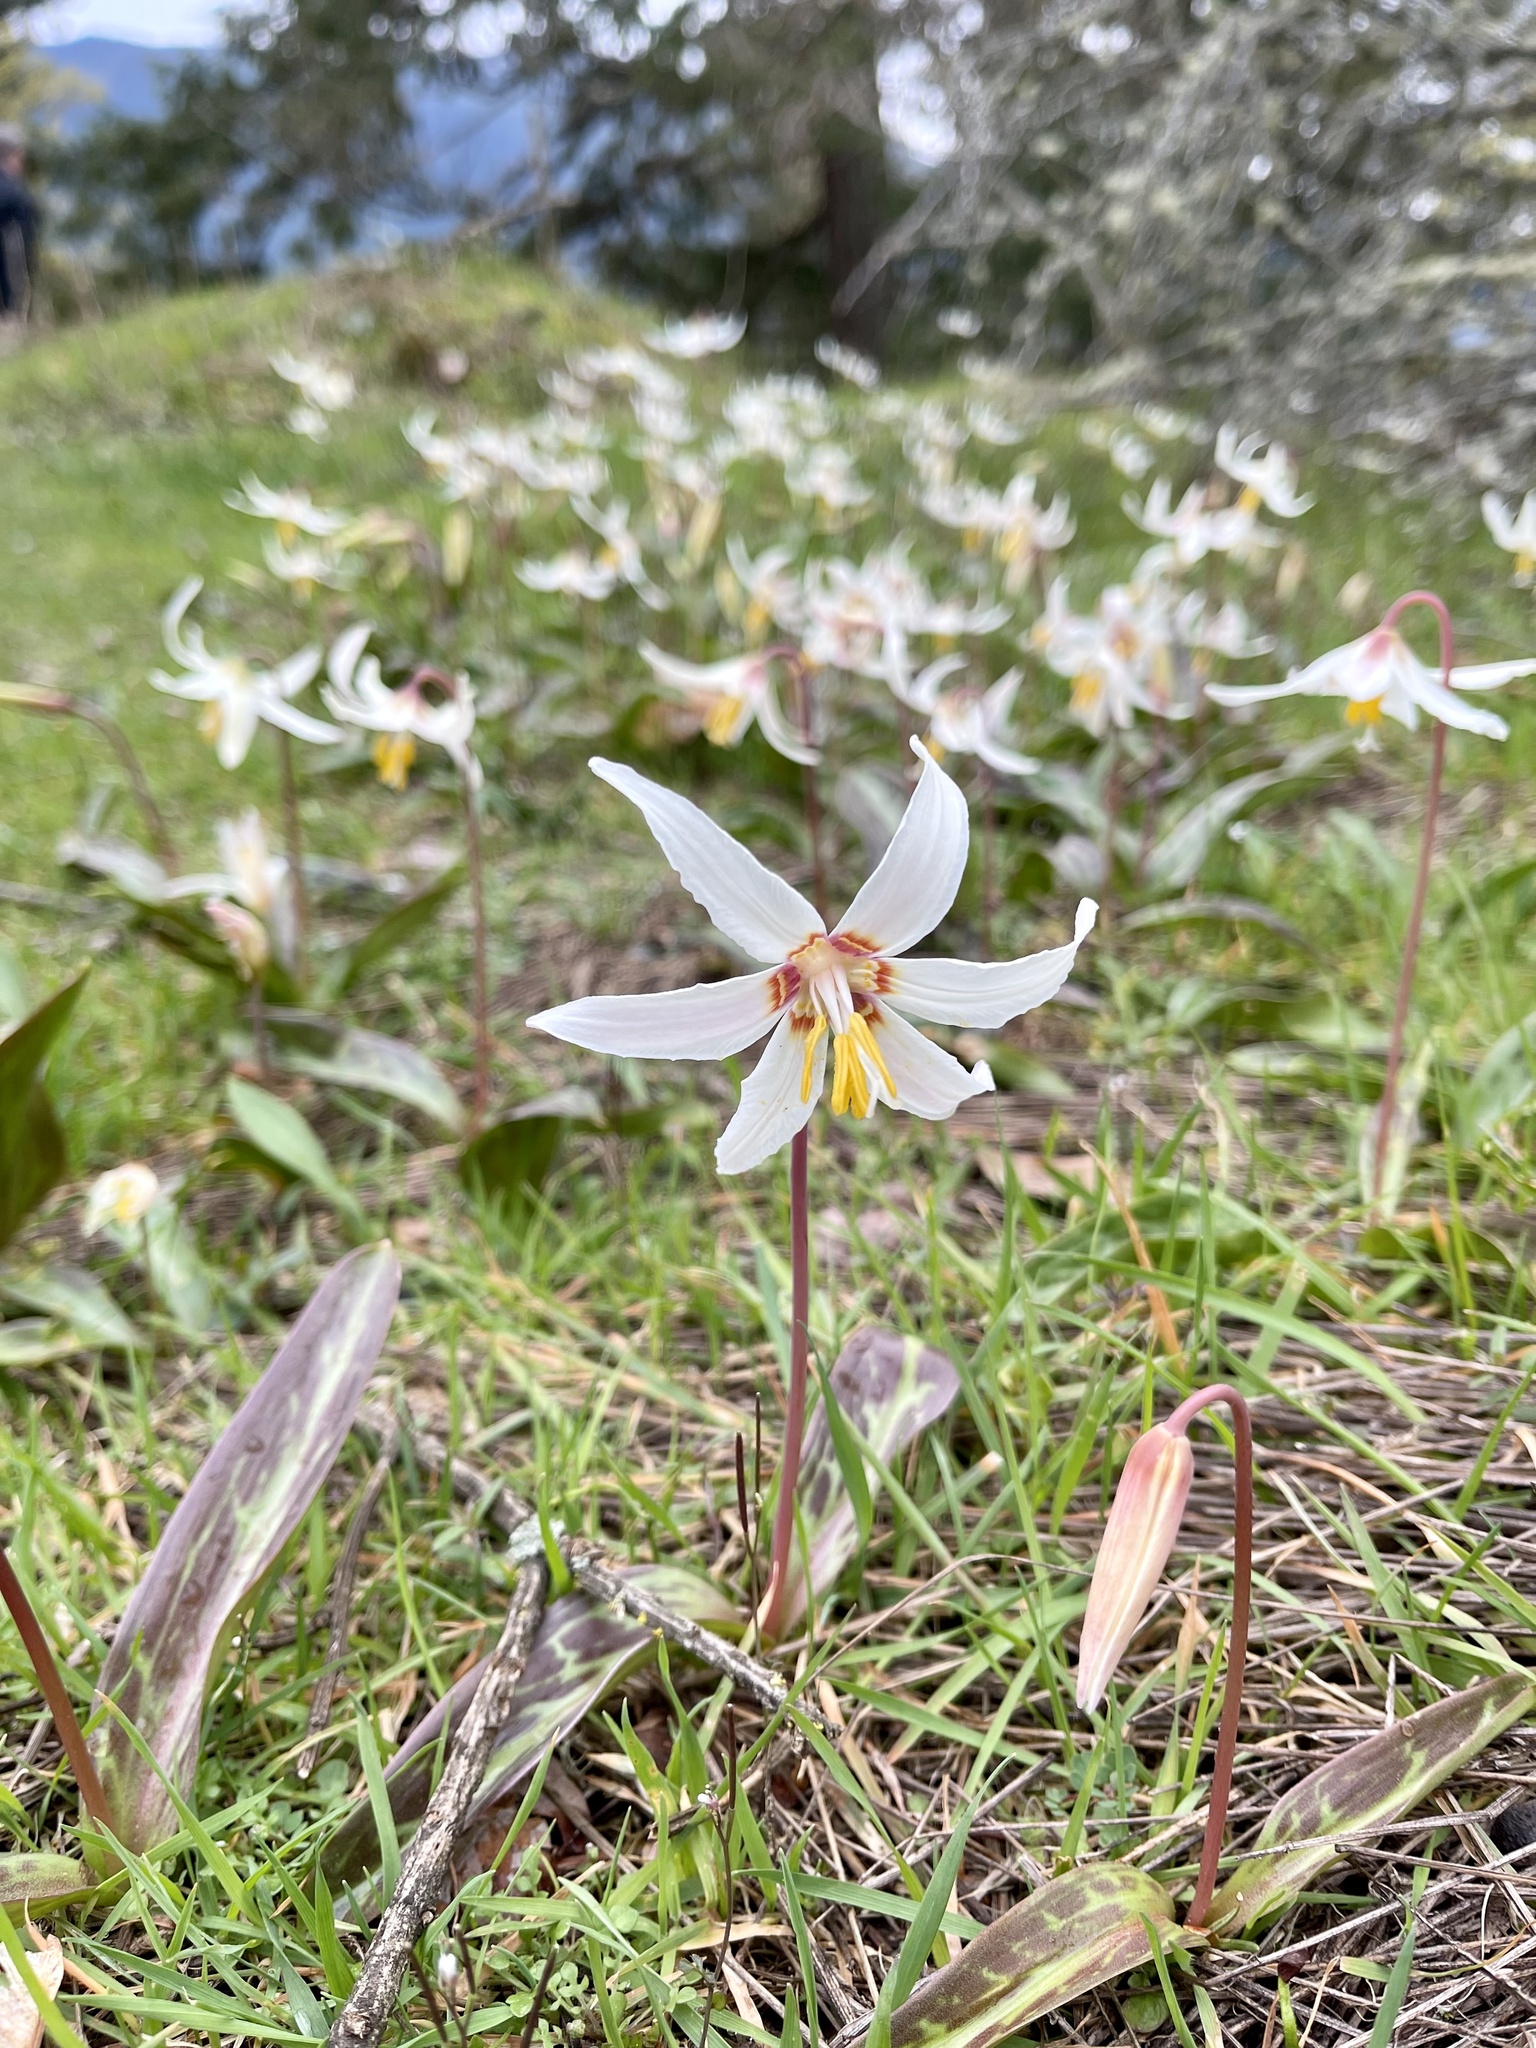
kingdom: Plantae
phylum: Tracheophyta
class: Liliopsida
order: Liliales
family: Liliaceae
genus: Erythronium
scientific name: Erythronium oregonum
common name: Giant adder's-tongue
